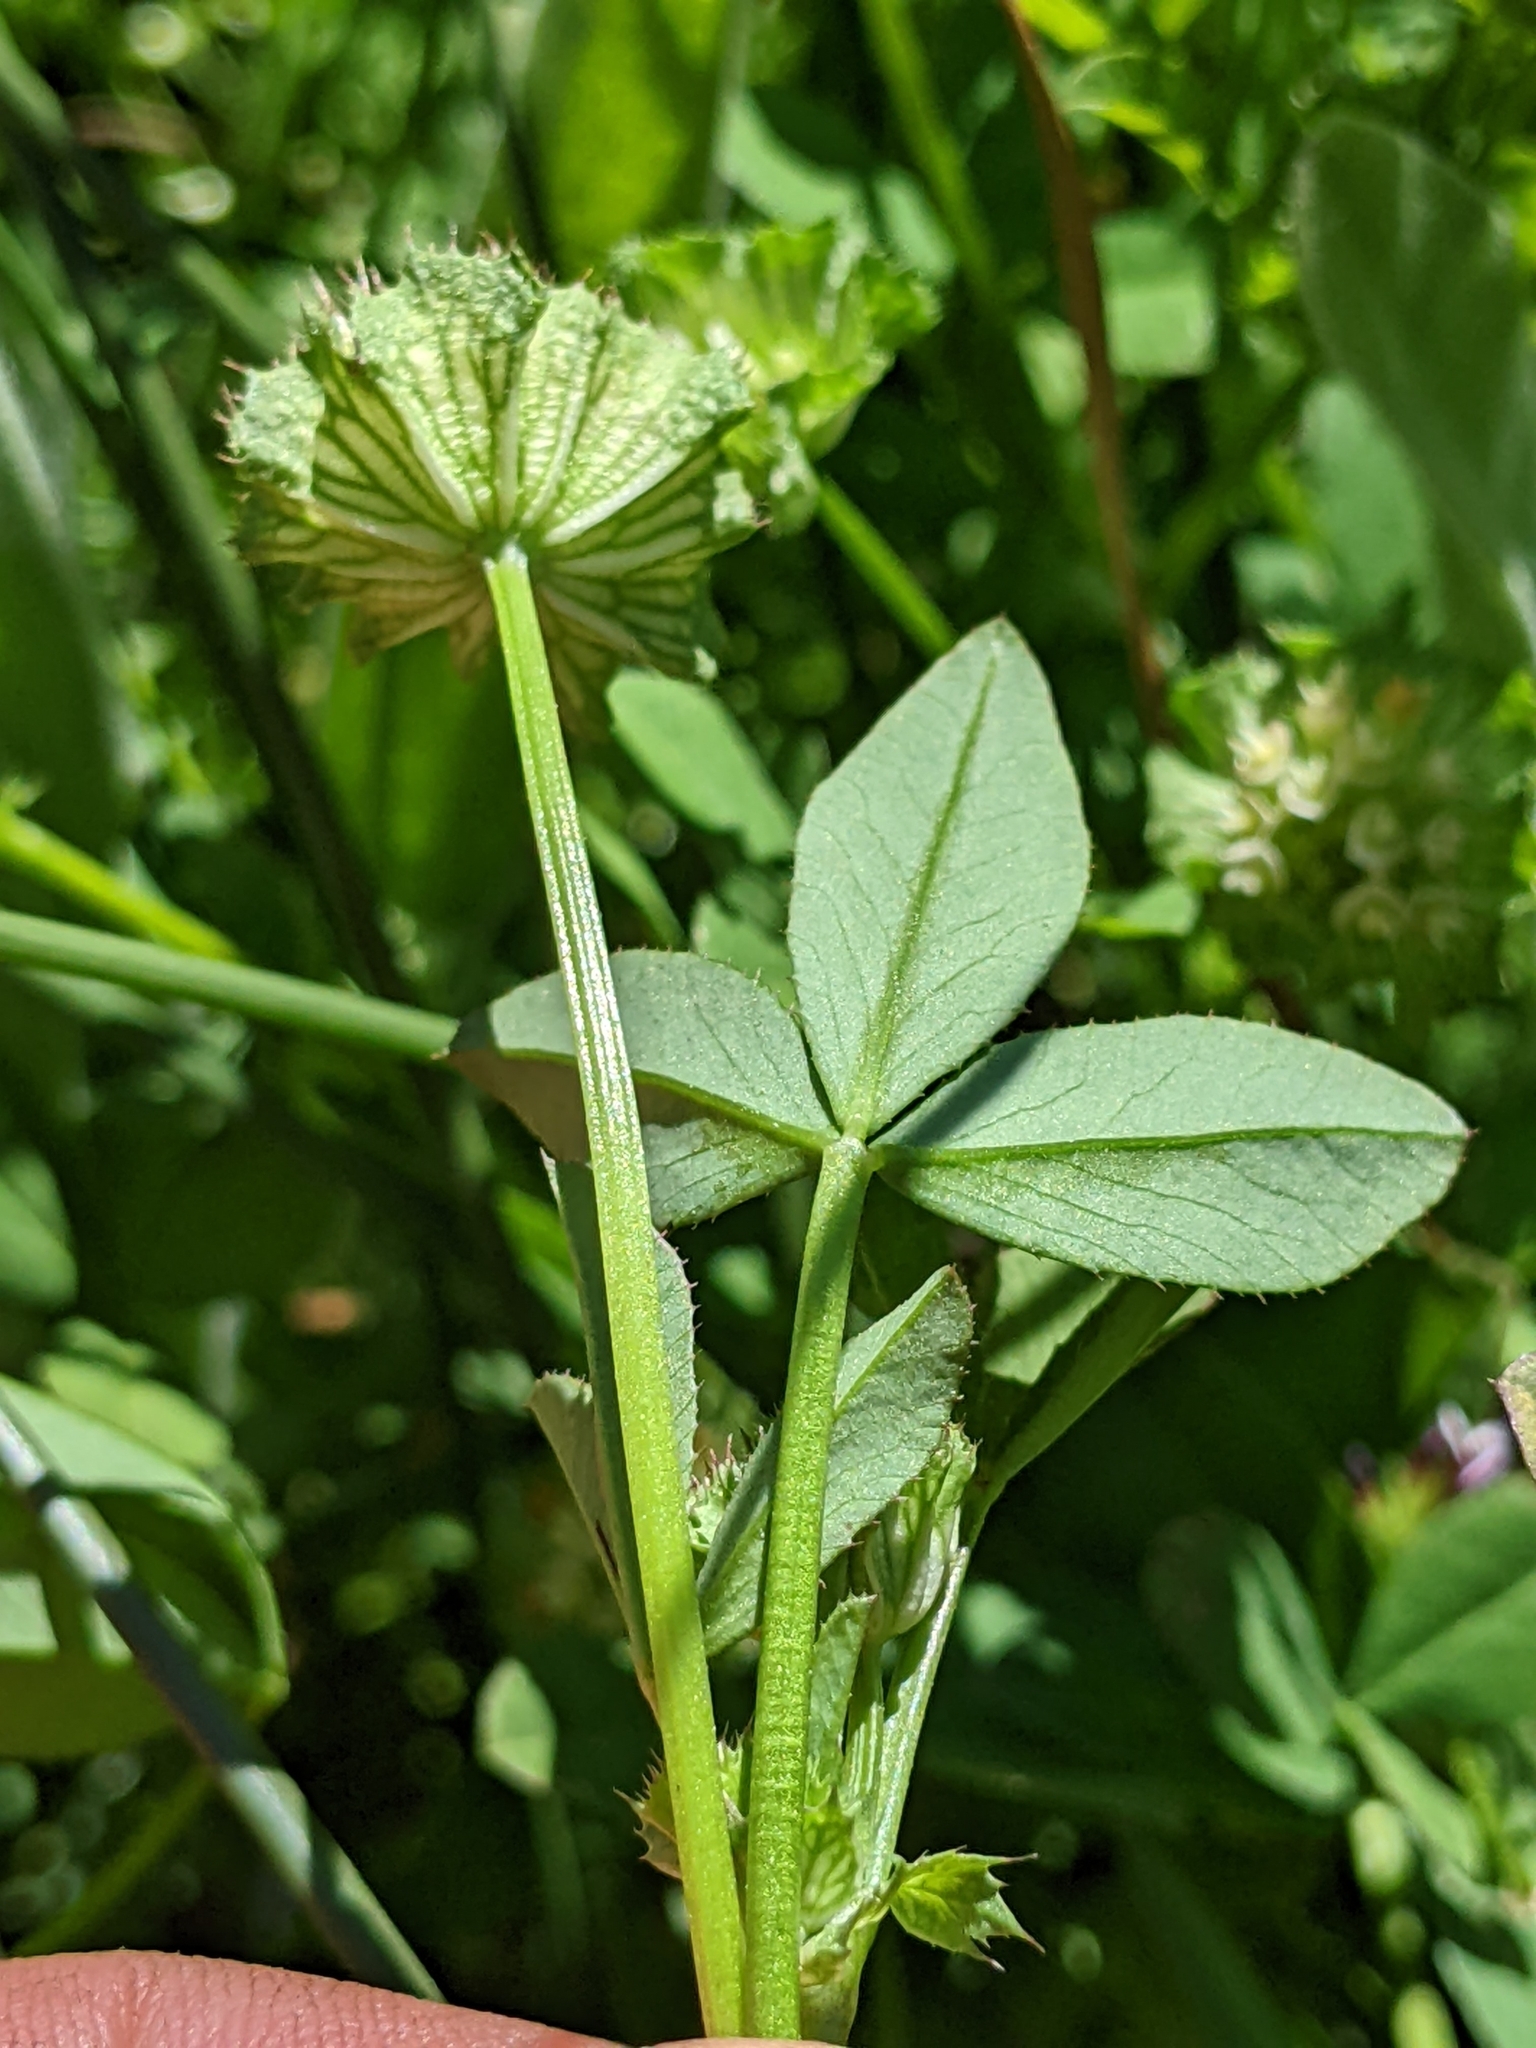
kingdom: Plantae
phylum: Tracheophyta
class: Magnoliopsida
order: Fabales
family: Fabaceae
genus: Trifolium
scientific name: Trifolium cyathiferum
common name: Bowl clover
